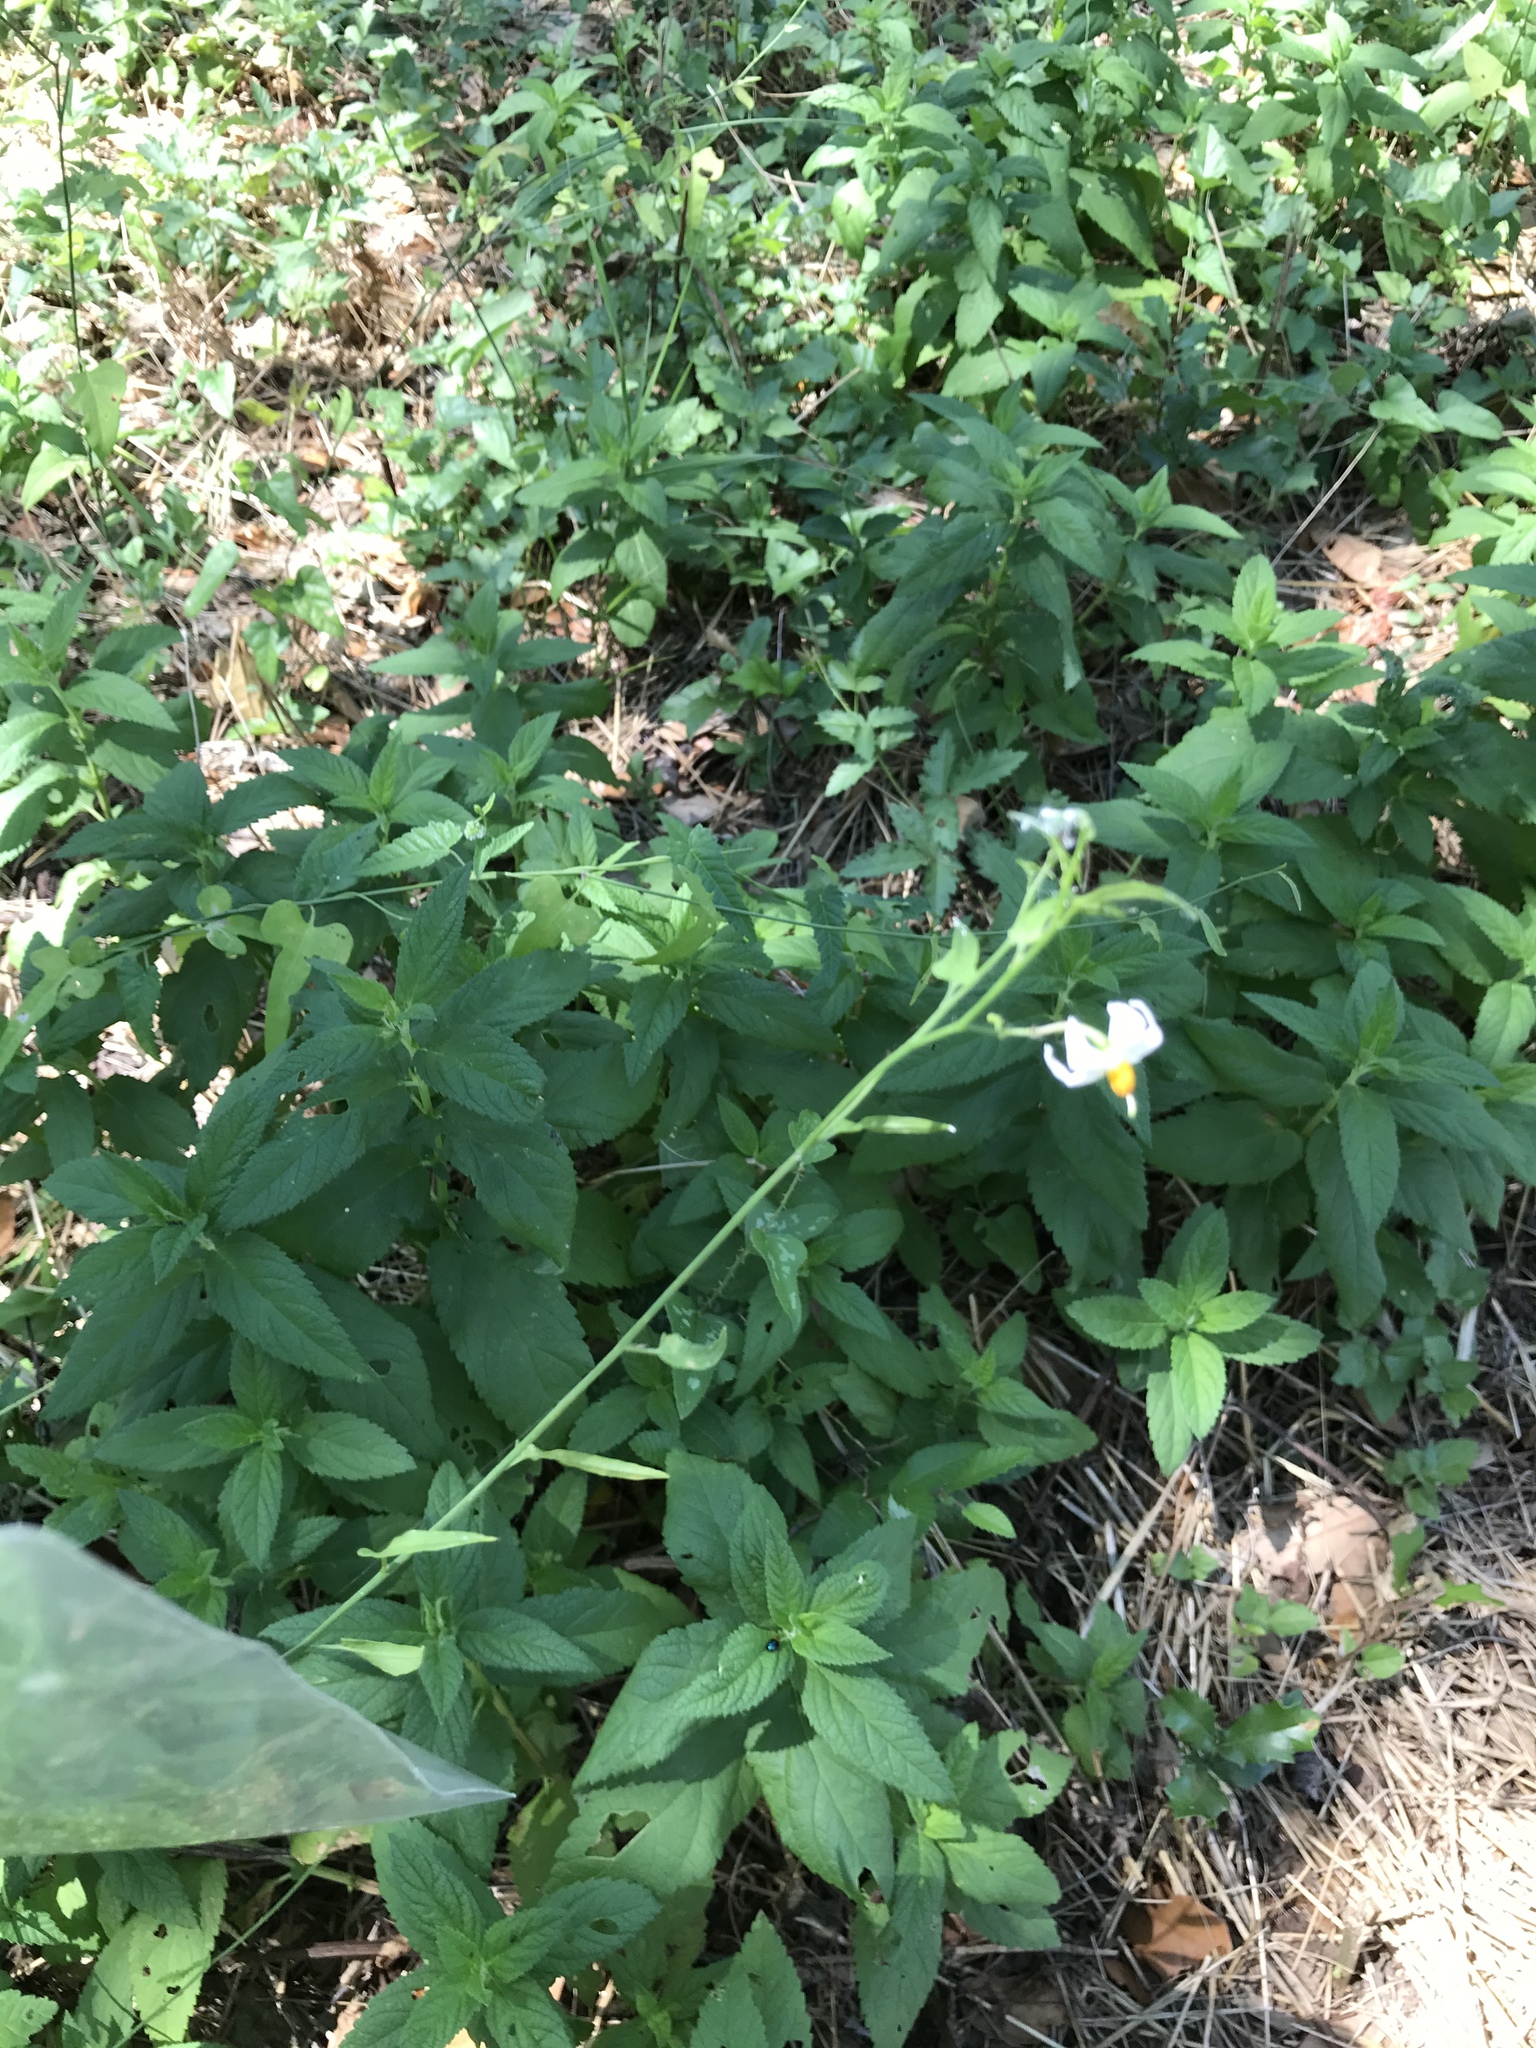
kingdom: Plantae
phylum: Tracheophyta
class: Magnoliopsida
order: Solanales
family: Solanaceae
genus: Solanum
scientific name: Solanum triquetrum
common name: Texas nightshade
